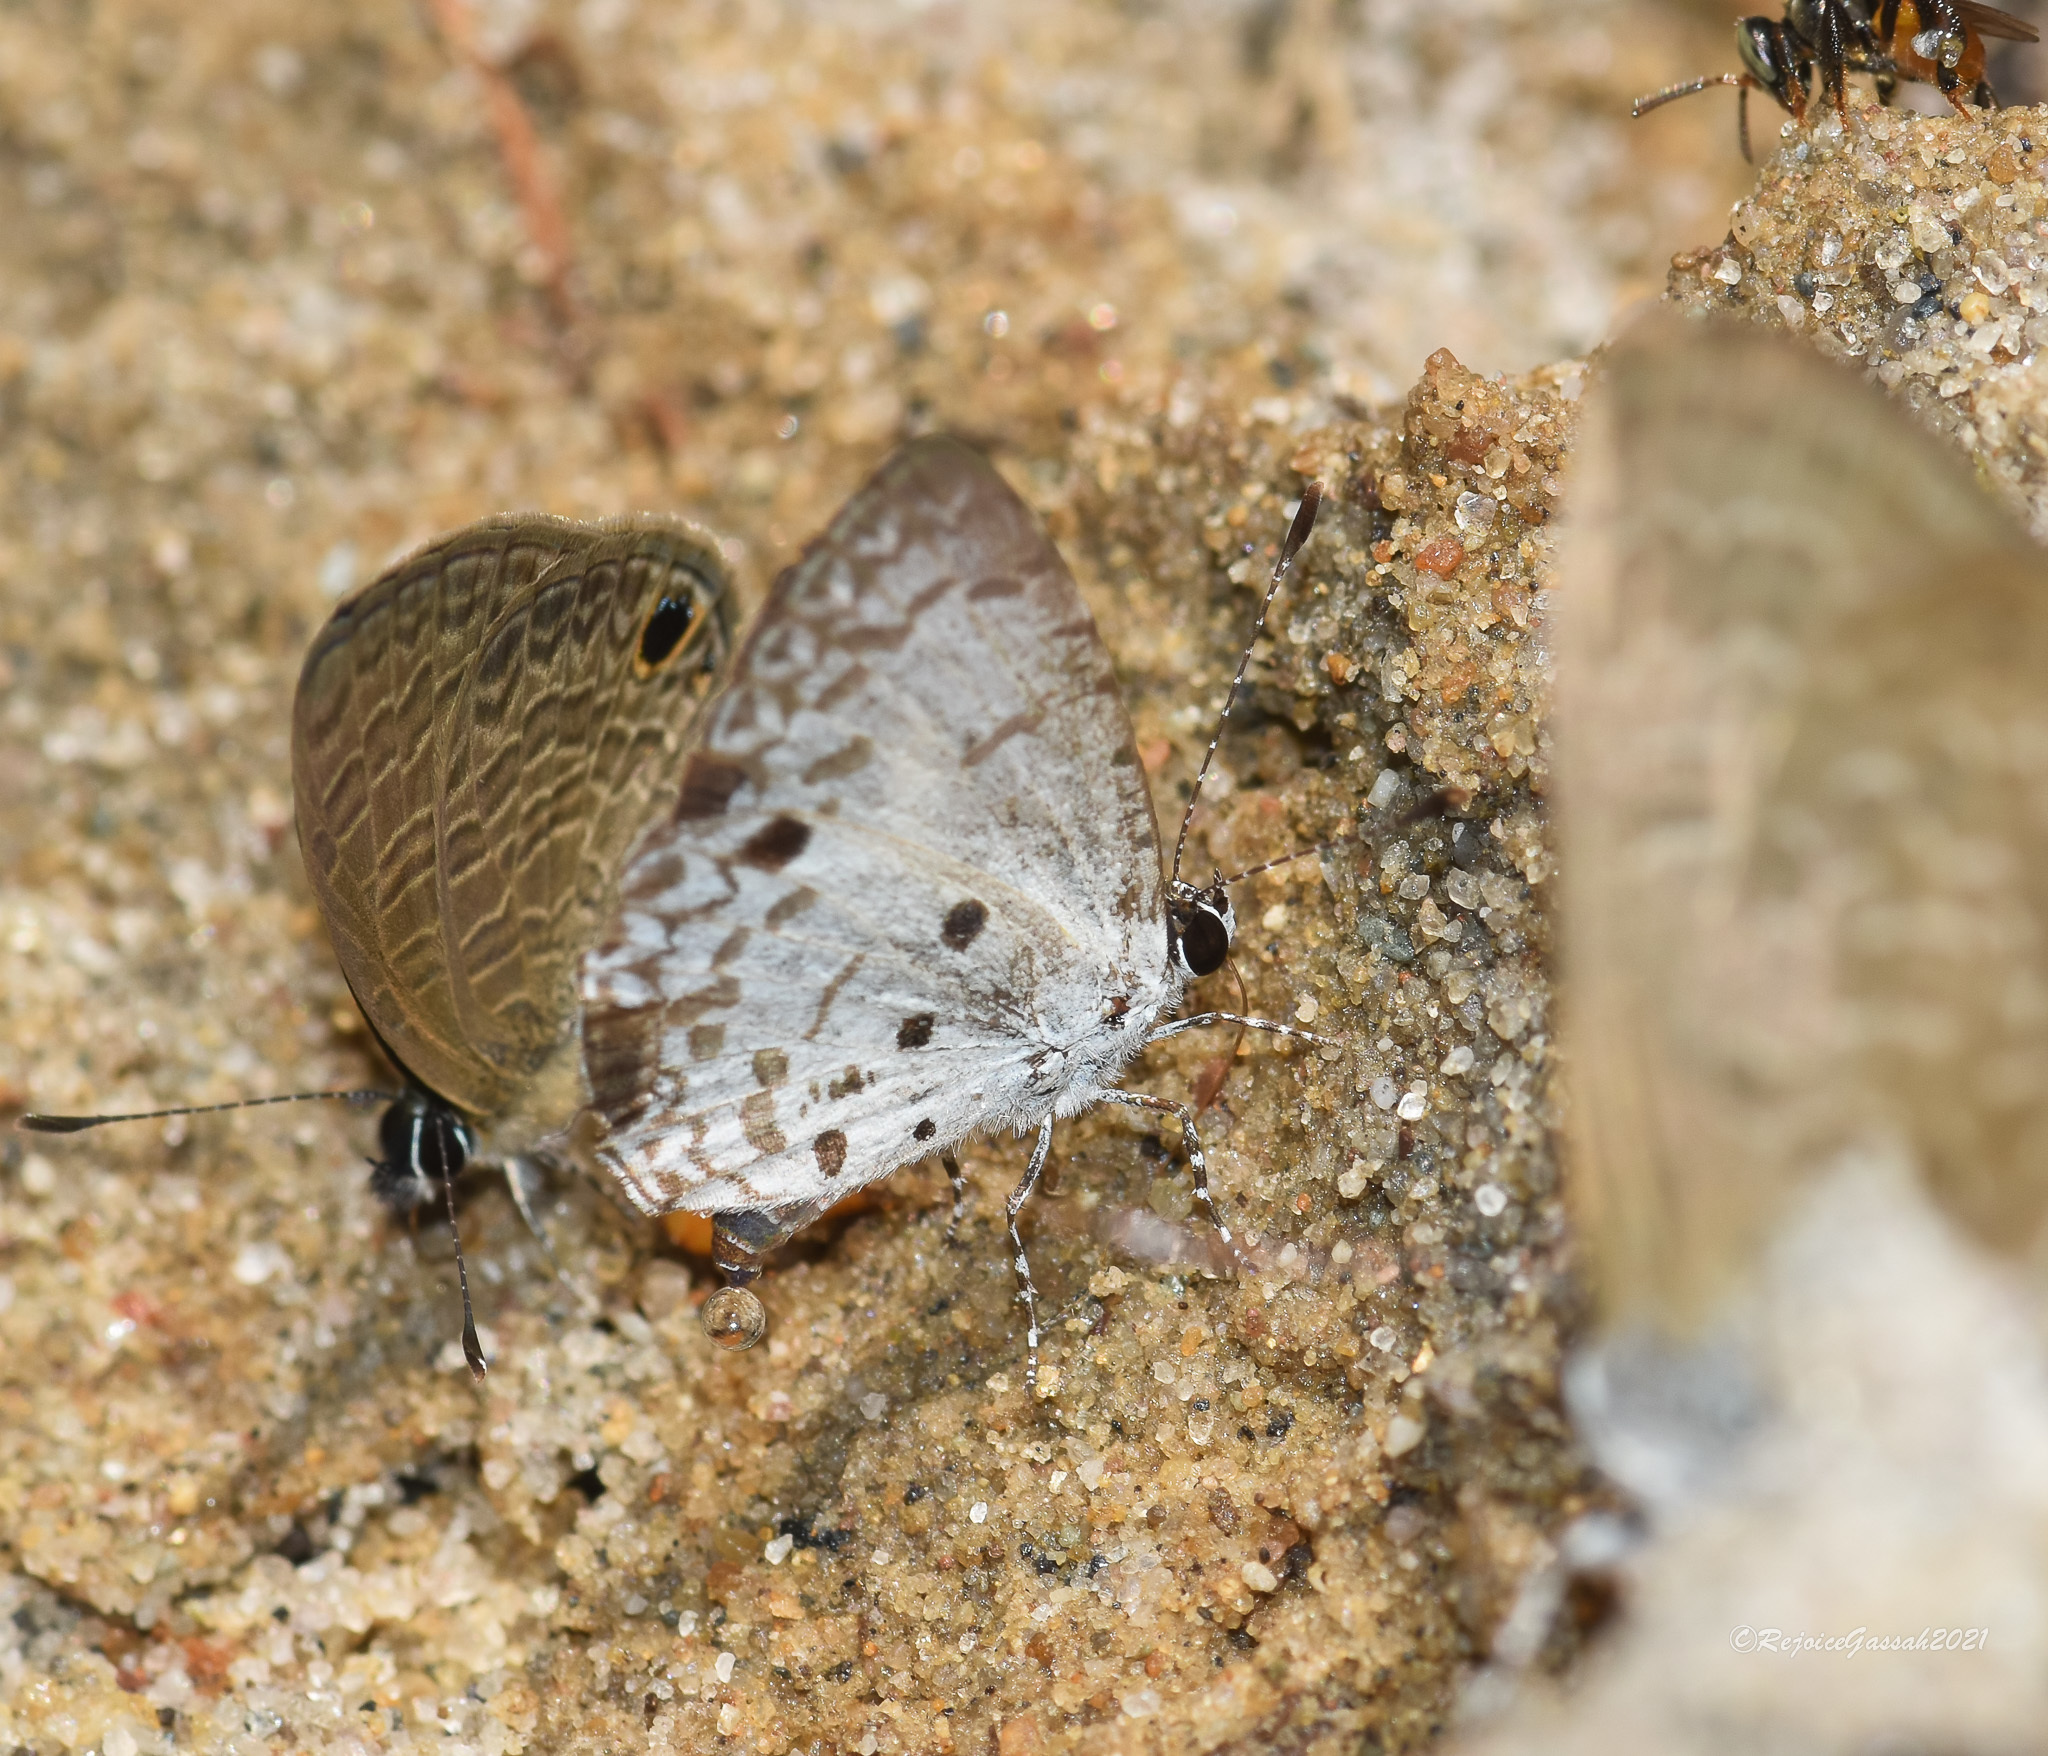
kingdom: Animalia
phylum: Arthropoda
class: Insecta
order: Lepidoptera
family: Lycaenidae
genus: Megisba
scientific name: Megisba malaya
